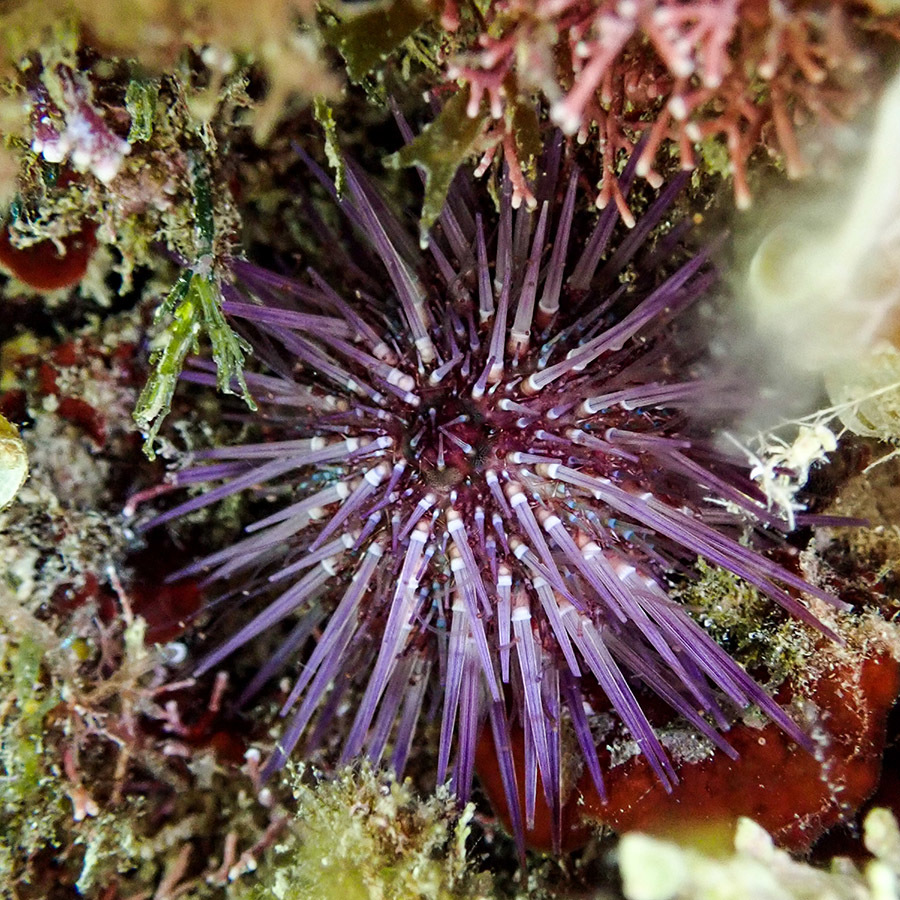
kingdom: Animalia
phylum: Echinodermata
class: Echinoidea
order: Camarodonta
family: Parechinidae
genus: Paracentrotus
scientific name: Paracentrotus lividus
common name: Purple sea urchin
